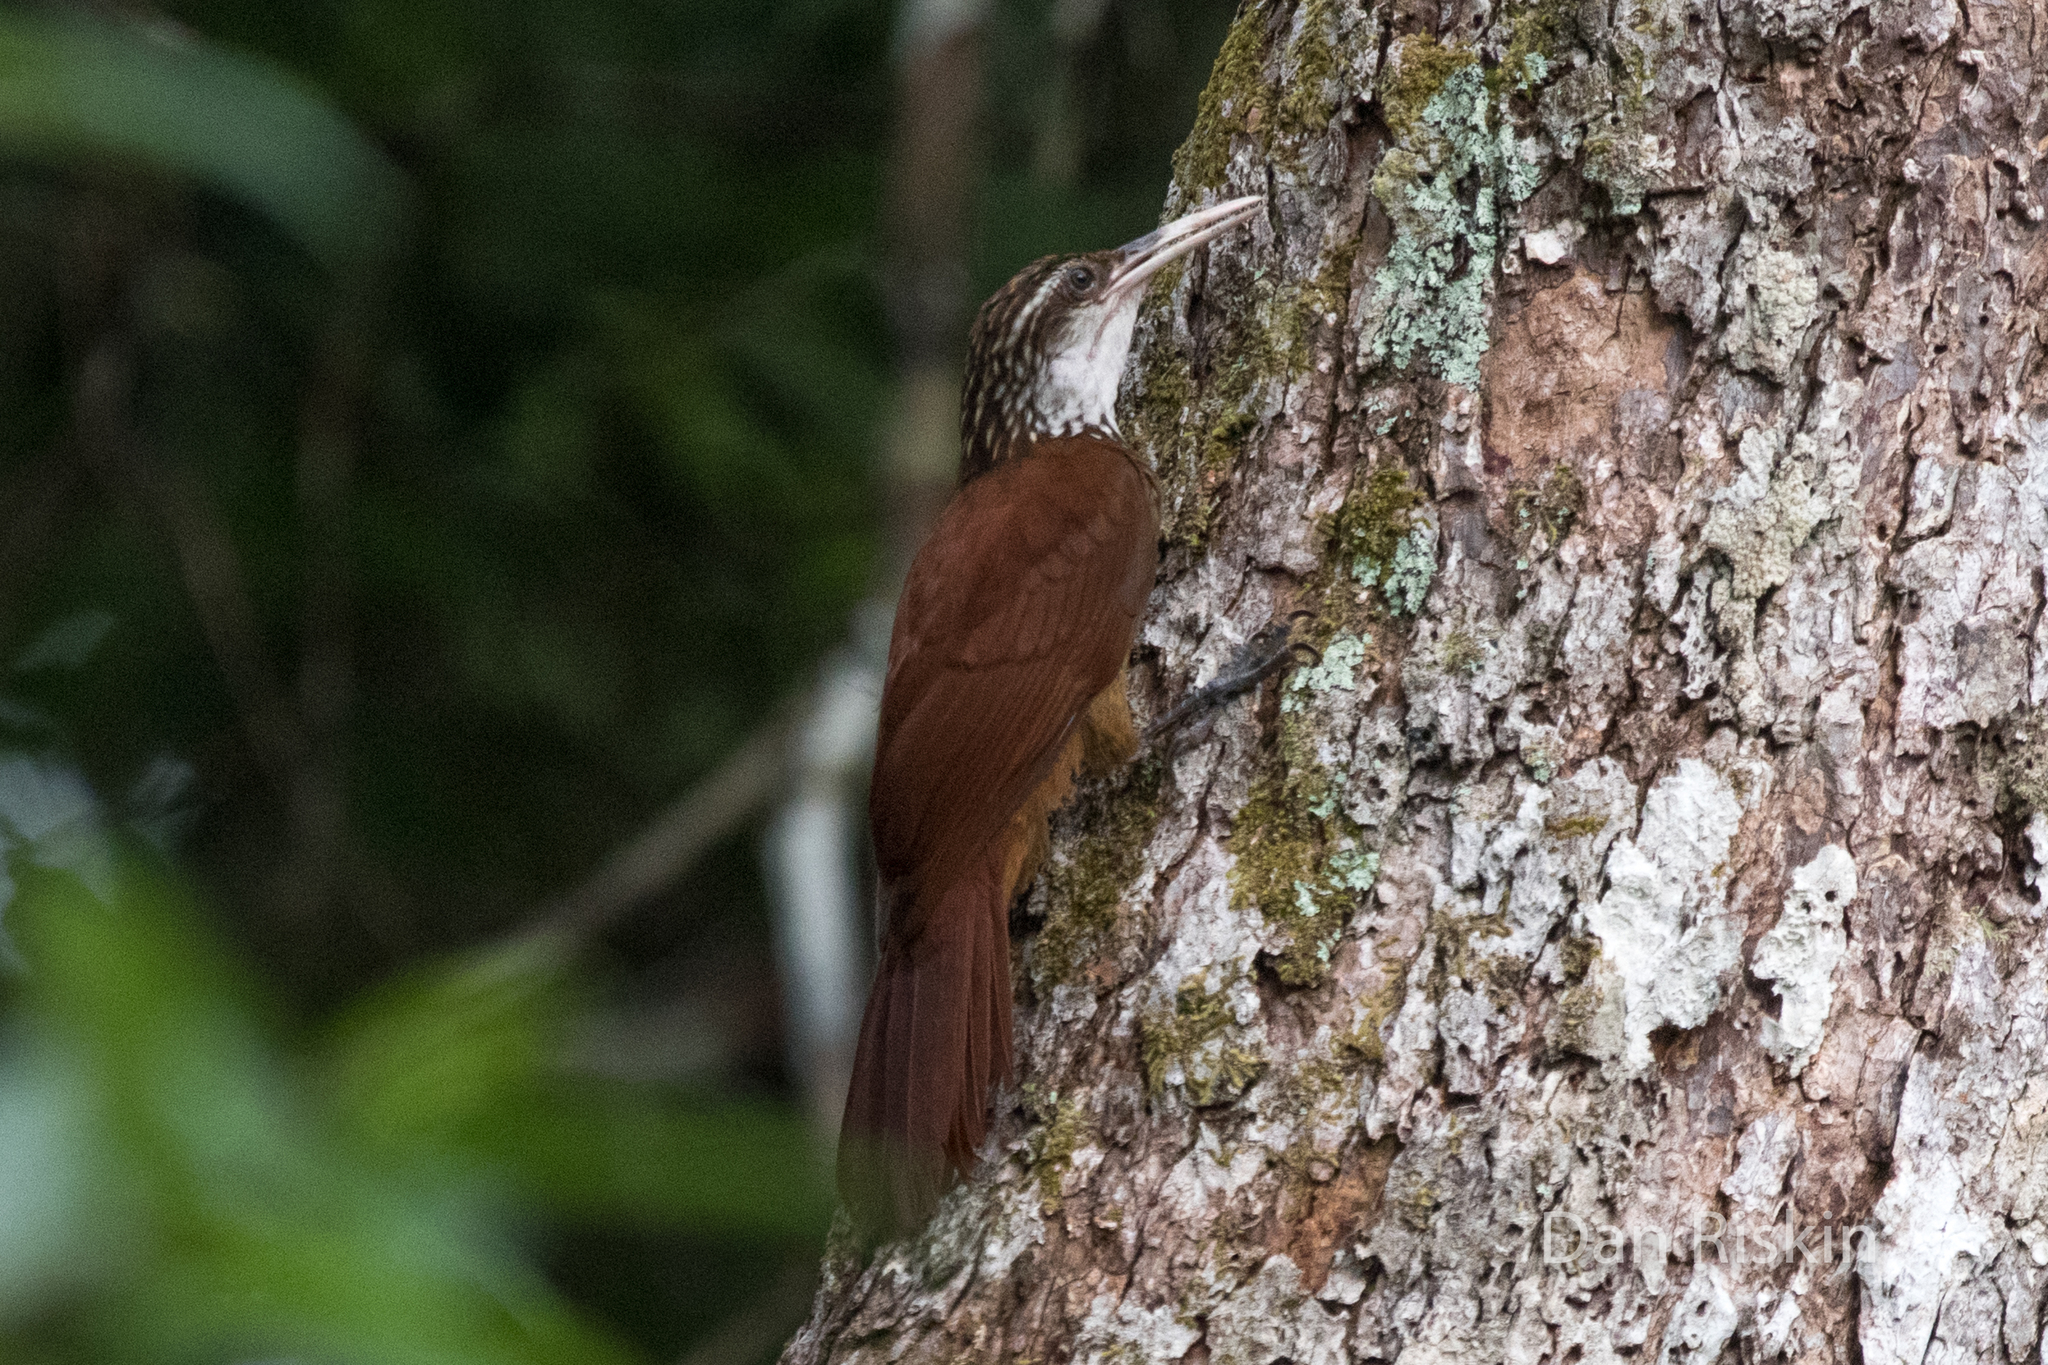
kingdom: Animalia
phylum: Chordata
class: Aves
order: Passeriformes
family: Furnariidae
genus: Nasica
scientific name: Nasica longirostris
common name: Long-billed woodcreeper
